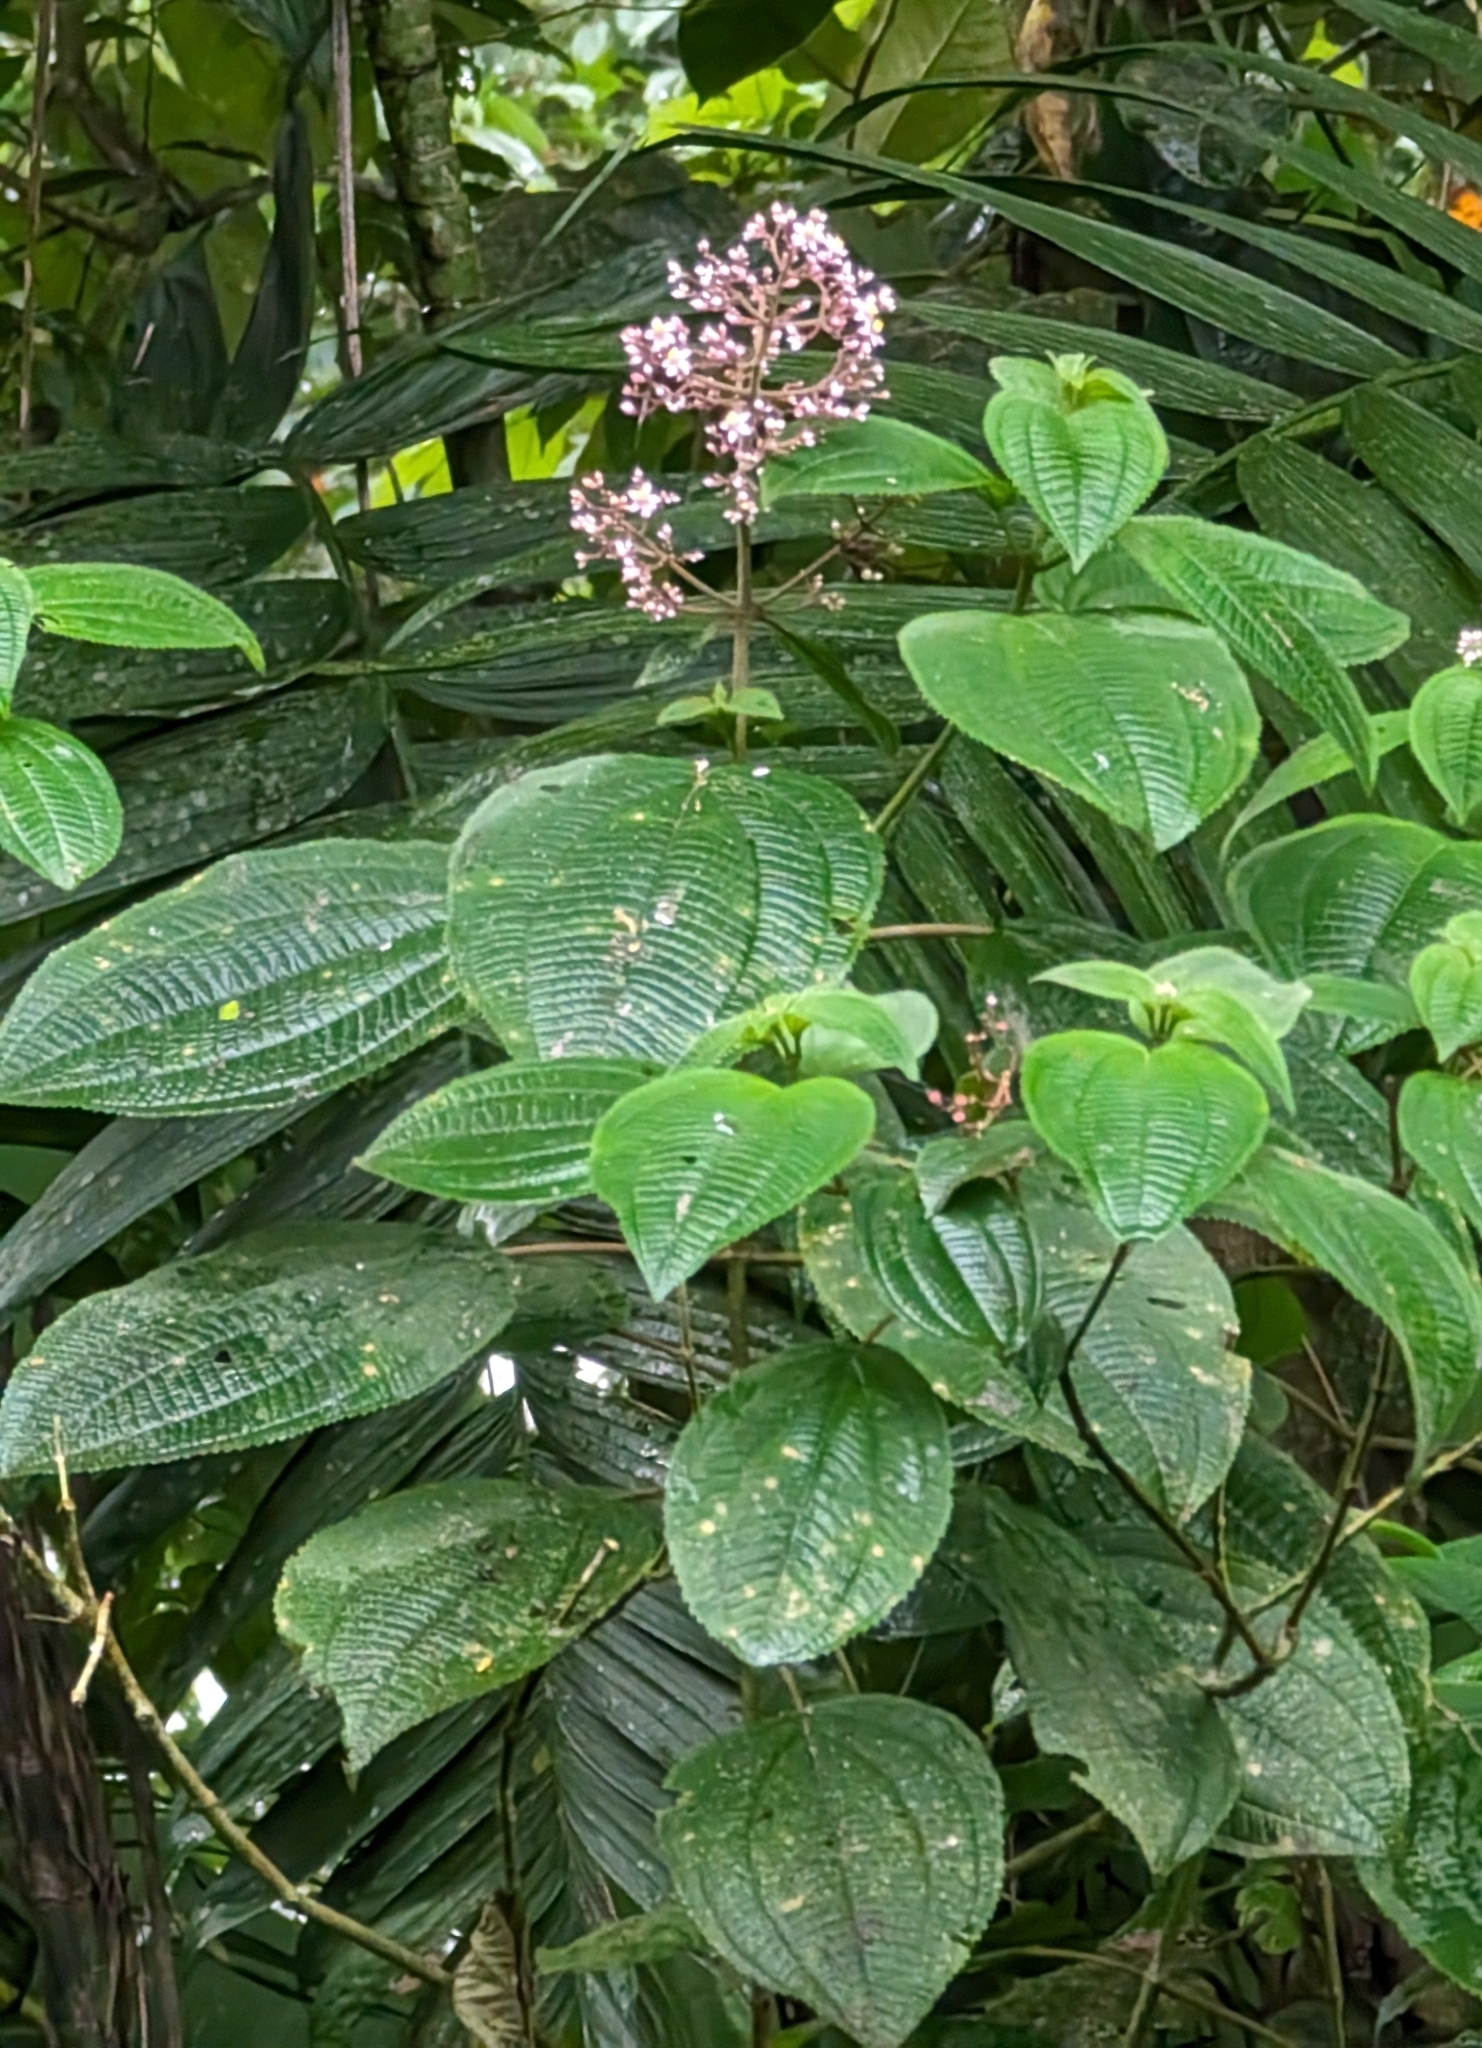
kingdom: Plantae
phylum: Tracheophyta
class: Magnoliopsida
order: Myrtales
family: Melastomataceae
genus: Miconia
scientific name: Miconia subcrustulata
